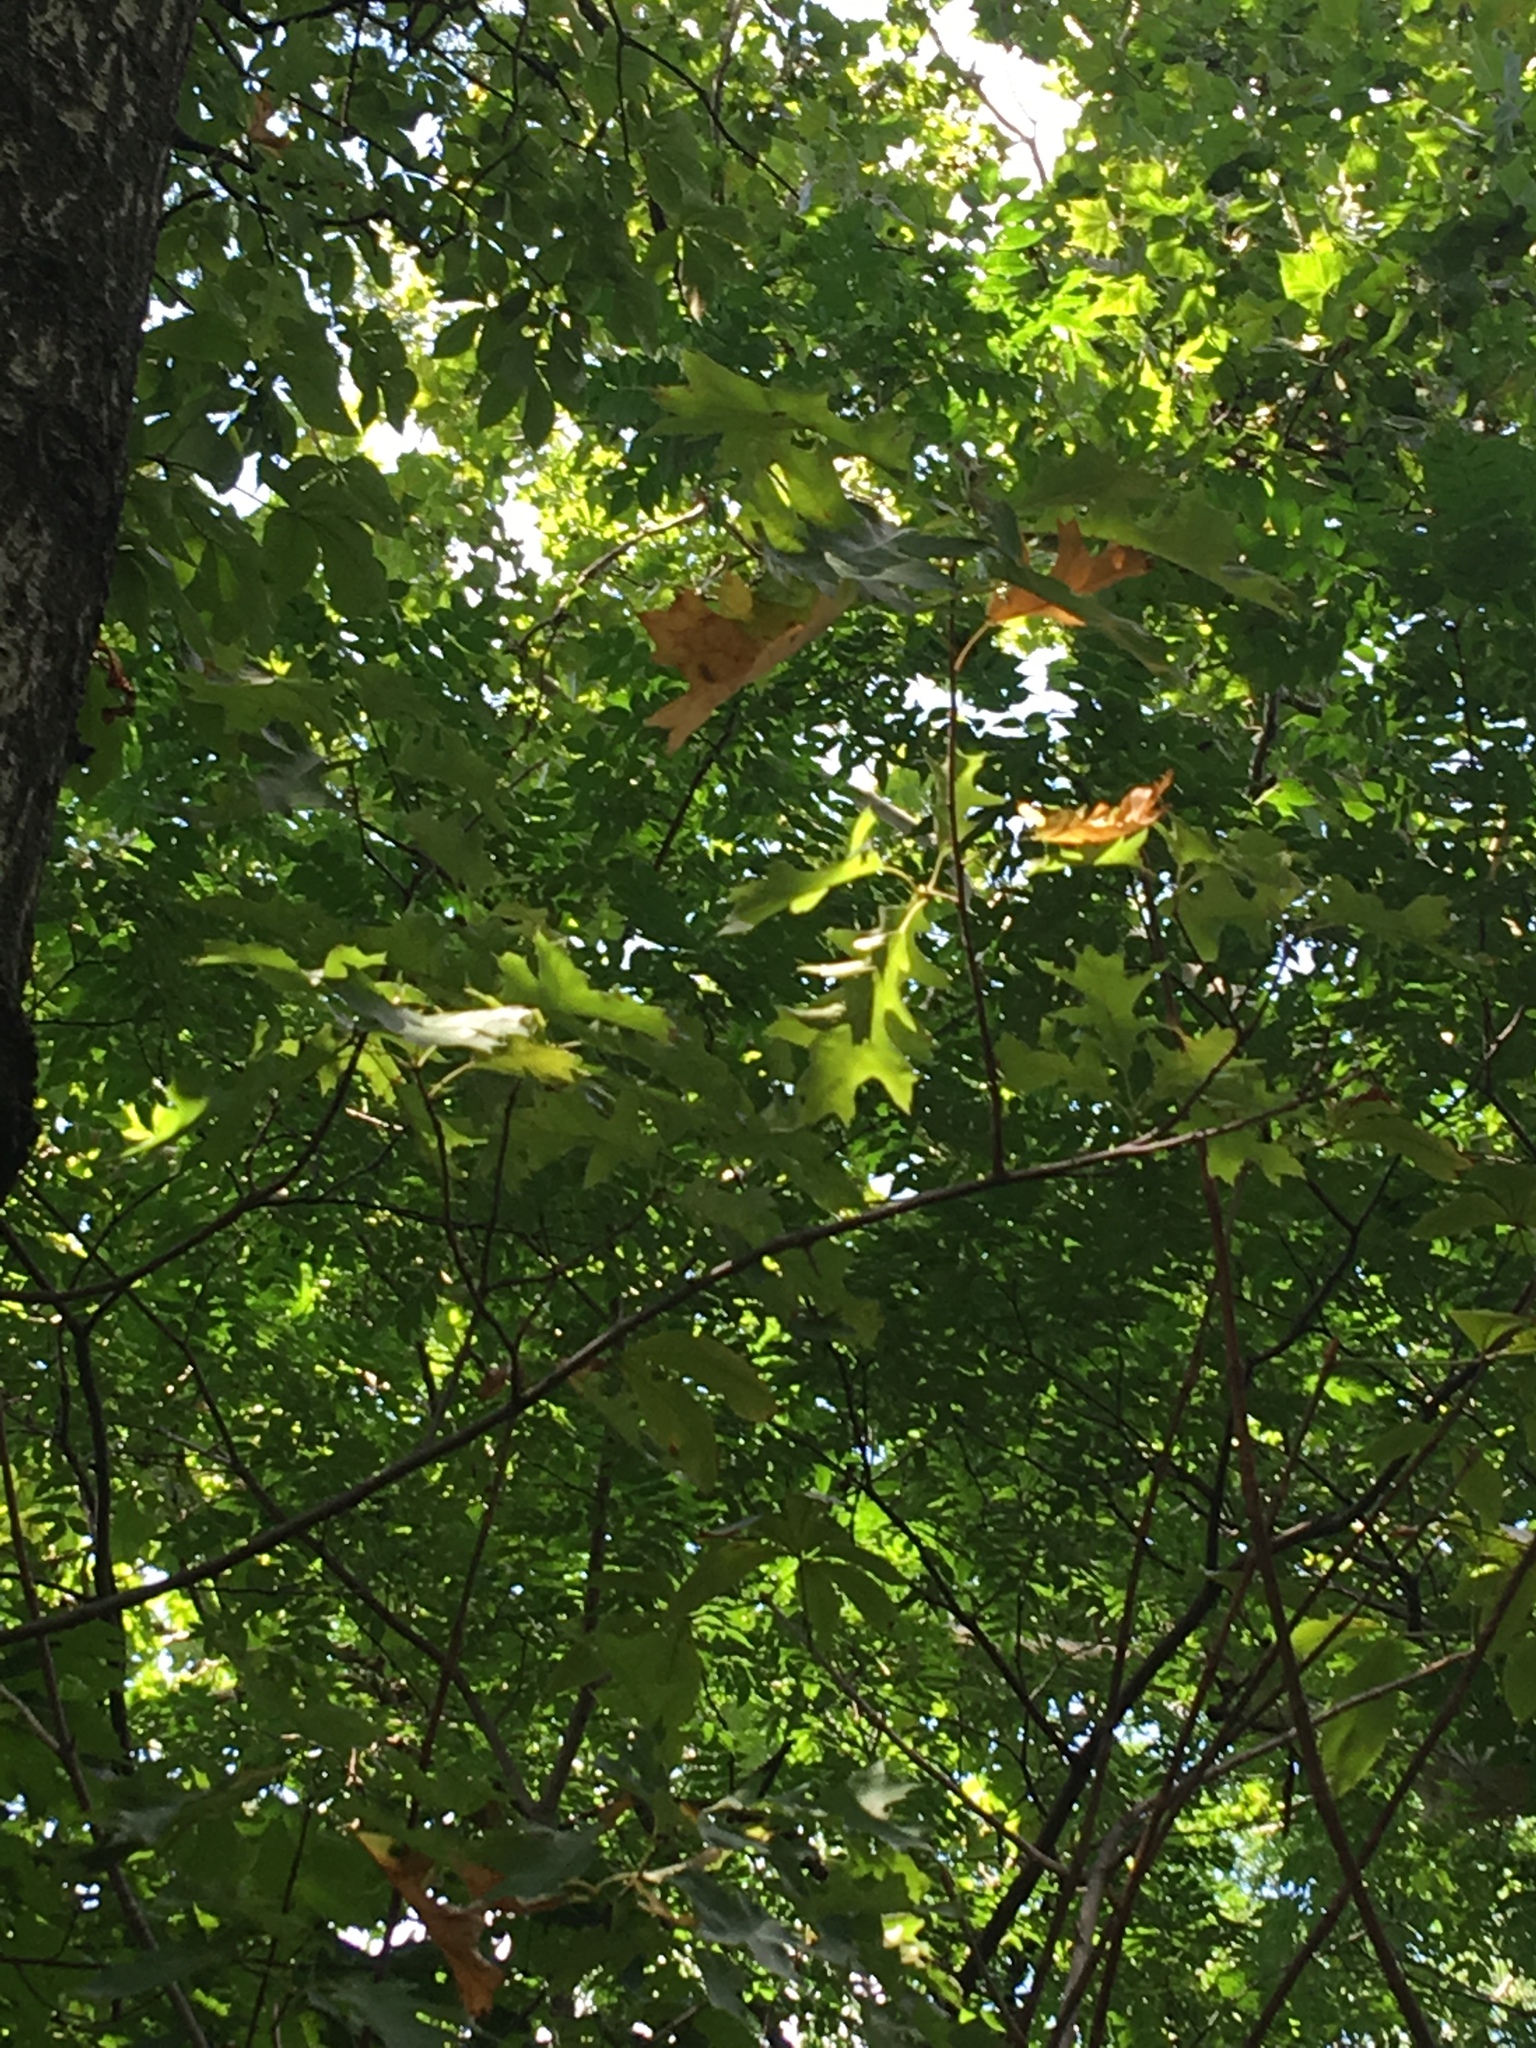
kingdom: Plantae
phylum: Tracheophyta
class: Magnoliopsida
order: Fagales
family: Fagaceae
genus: Quercus
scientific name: Quercus rubra
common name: Red oak
